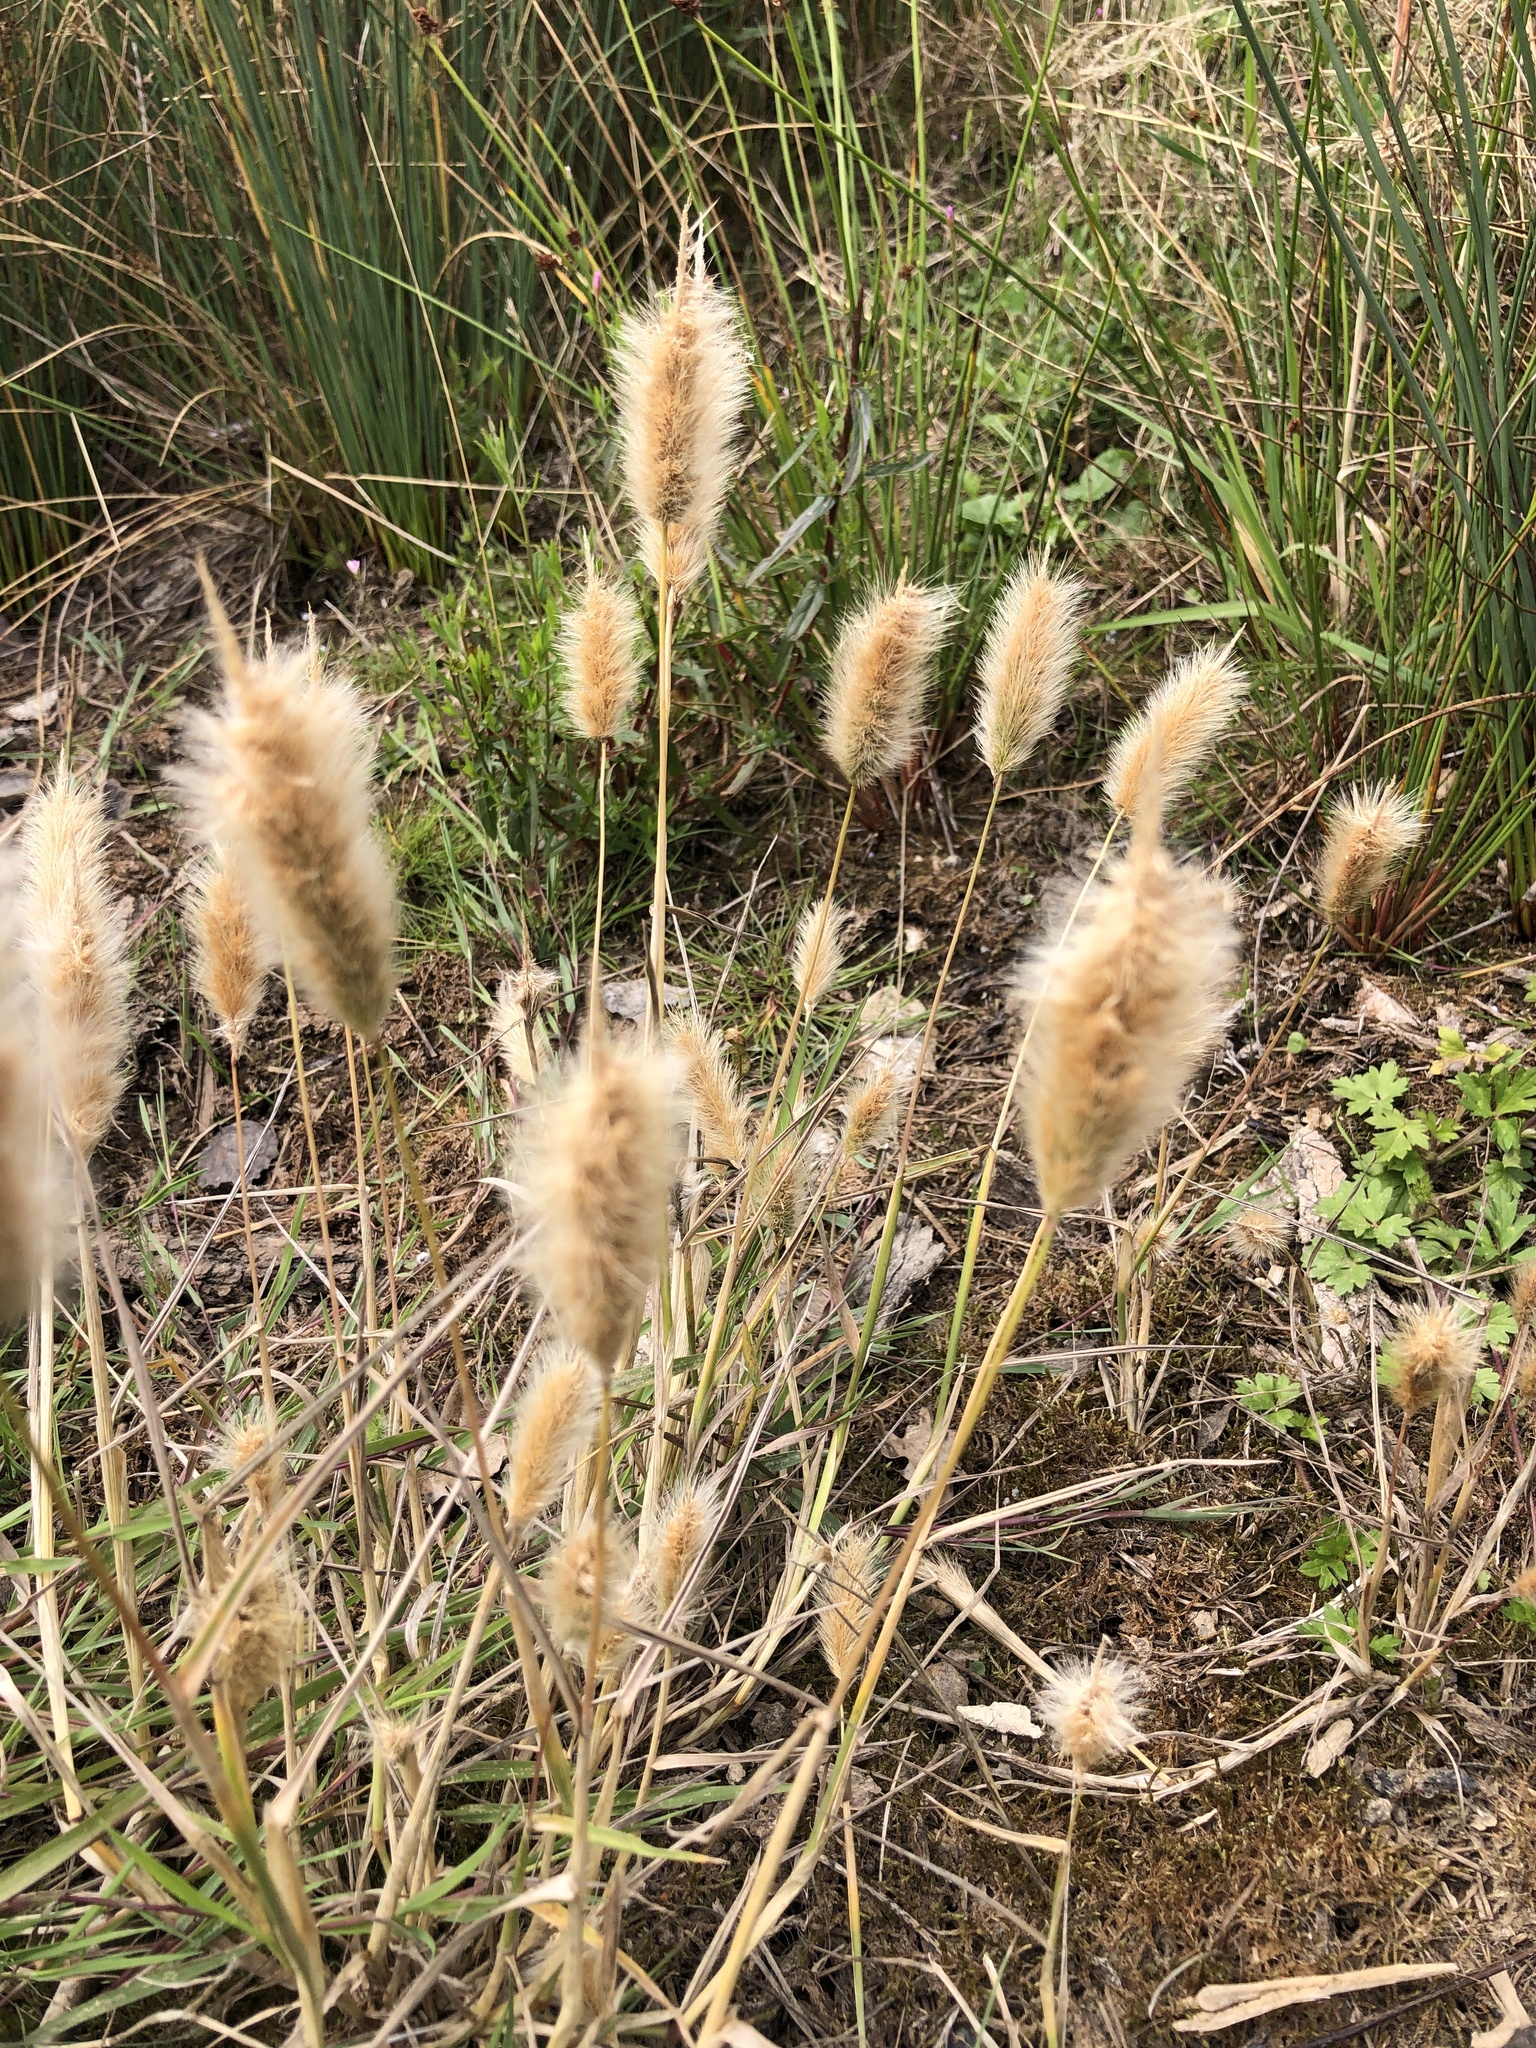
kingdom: Plantae
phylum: Tracheophyta
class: Liliopsida
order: Poales
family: Poaceae
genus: Polypogon
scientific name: Polypogon monspeliensis
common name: Annual rabbitsfoot grass
